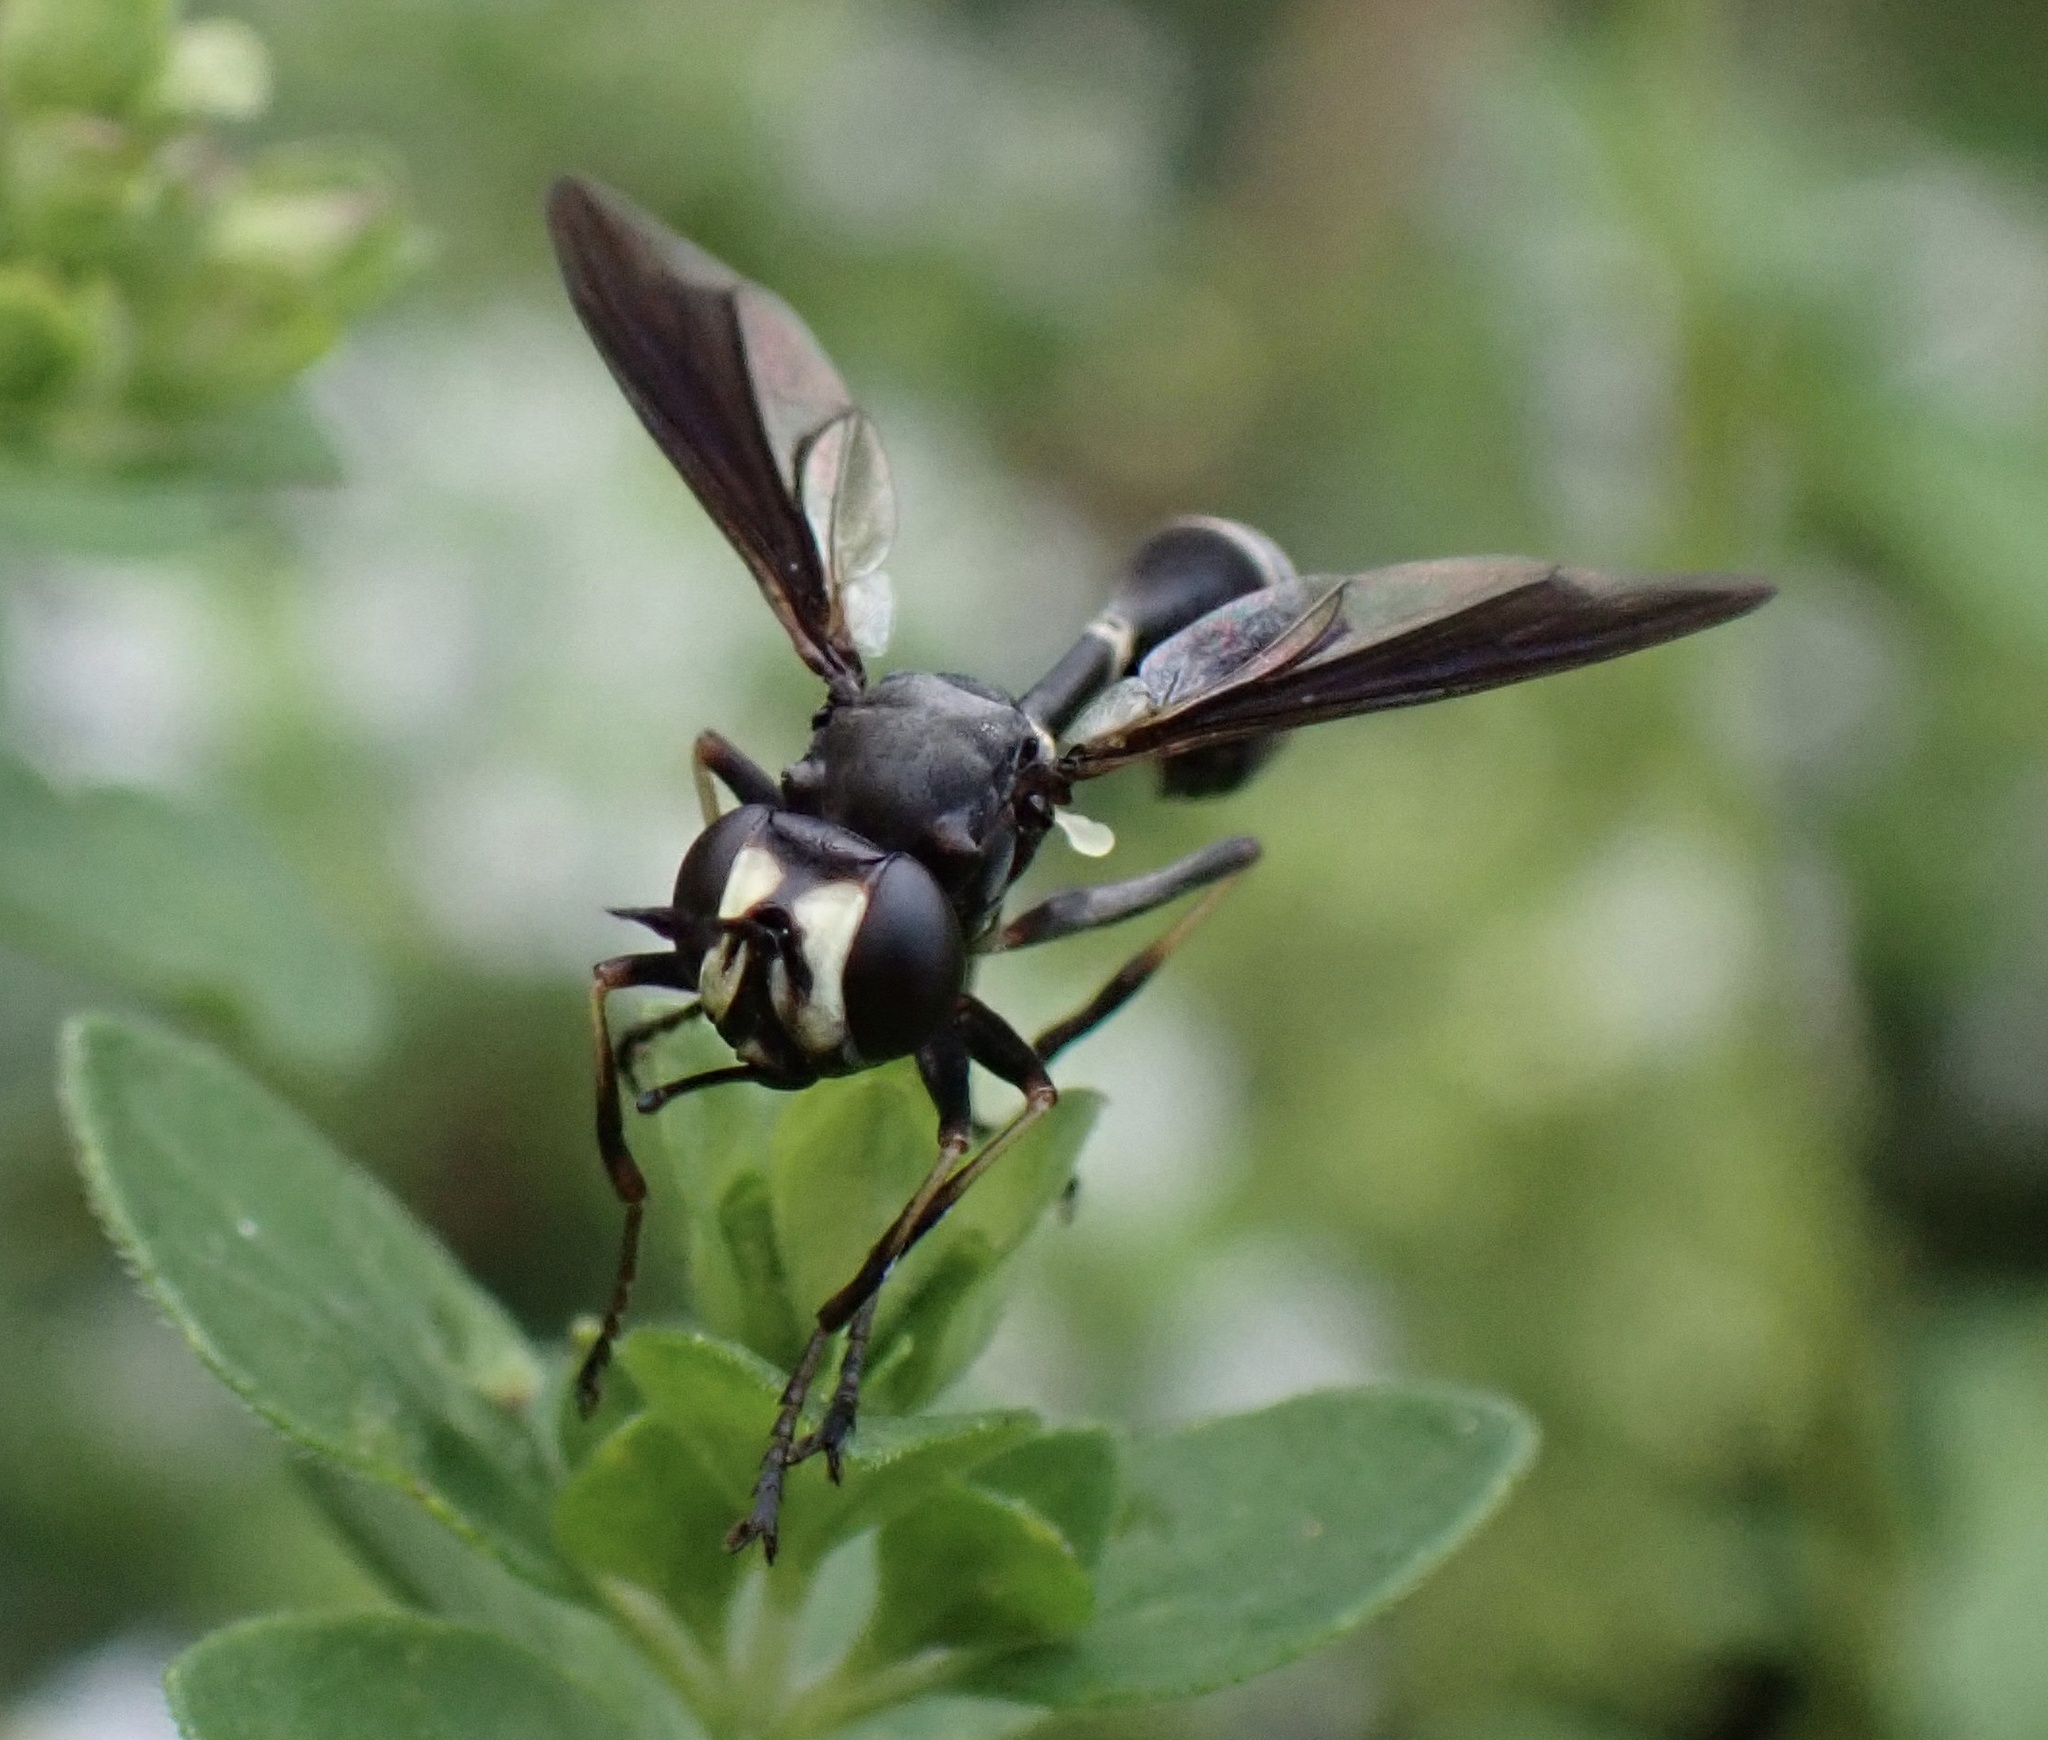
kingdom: Animalia
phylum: Arthropoda
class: Insecta
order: Diptera
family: Conopidae
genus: Physocephala
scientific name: Physocephala tibialis
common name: Common eastern physocephala
